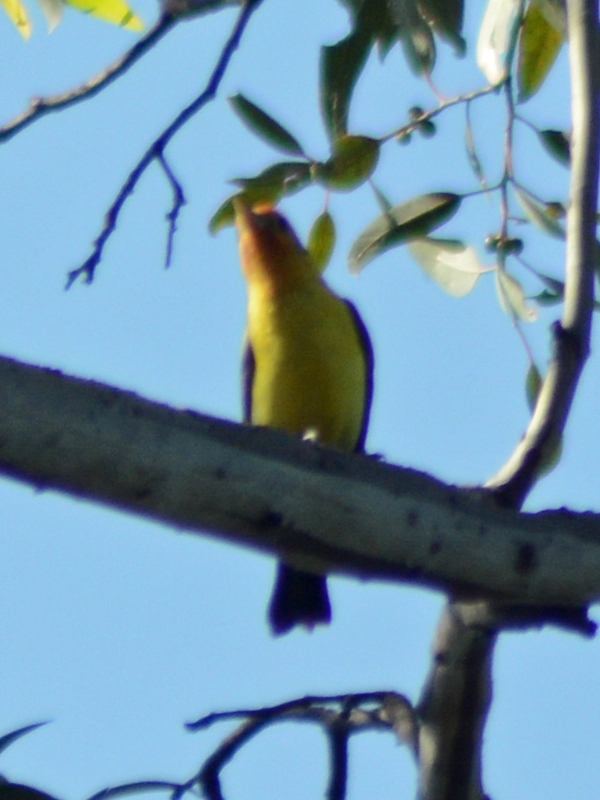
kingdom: Animalia
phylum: Chordata
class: Aves
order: Passeriformes
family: Cardinalidae
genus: Piranga
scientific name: Piranga ludoviciana
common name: Western tanager
